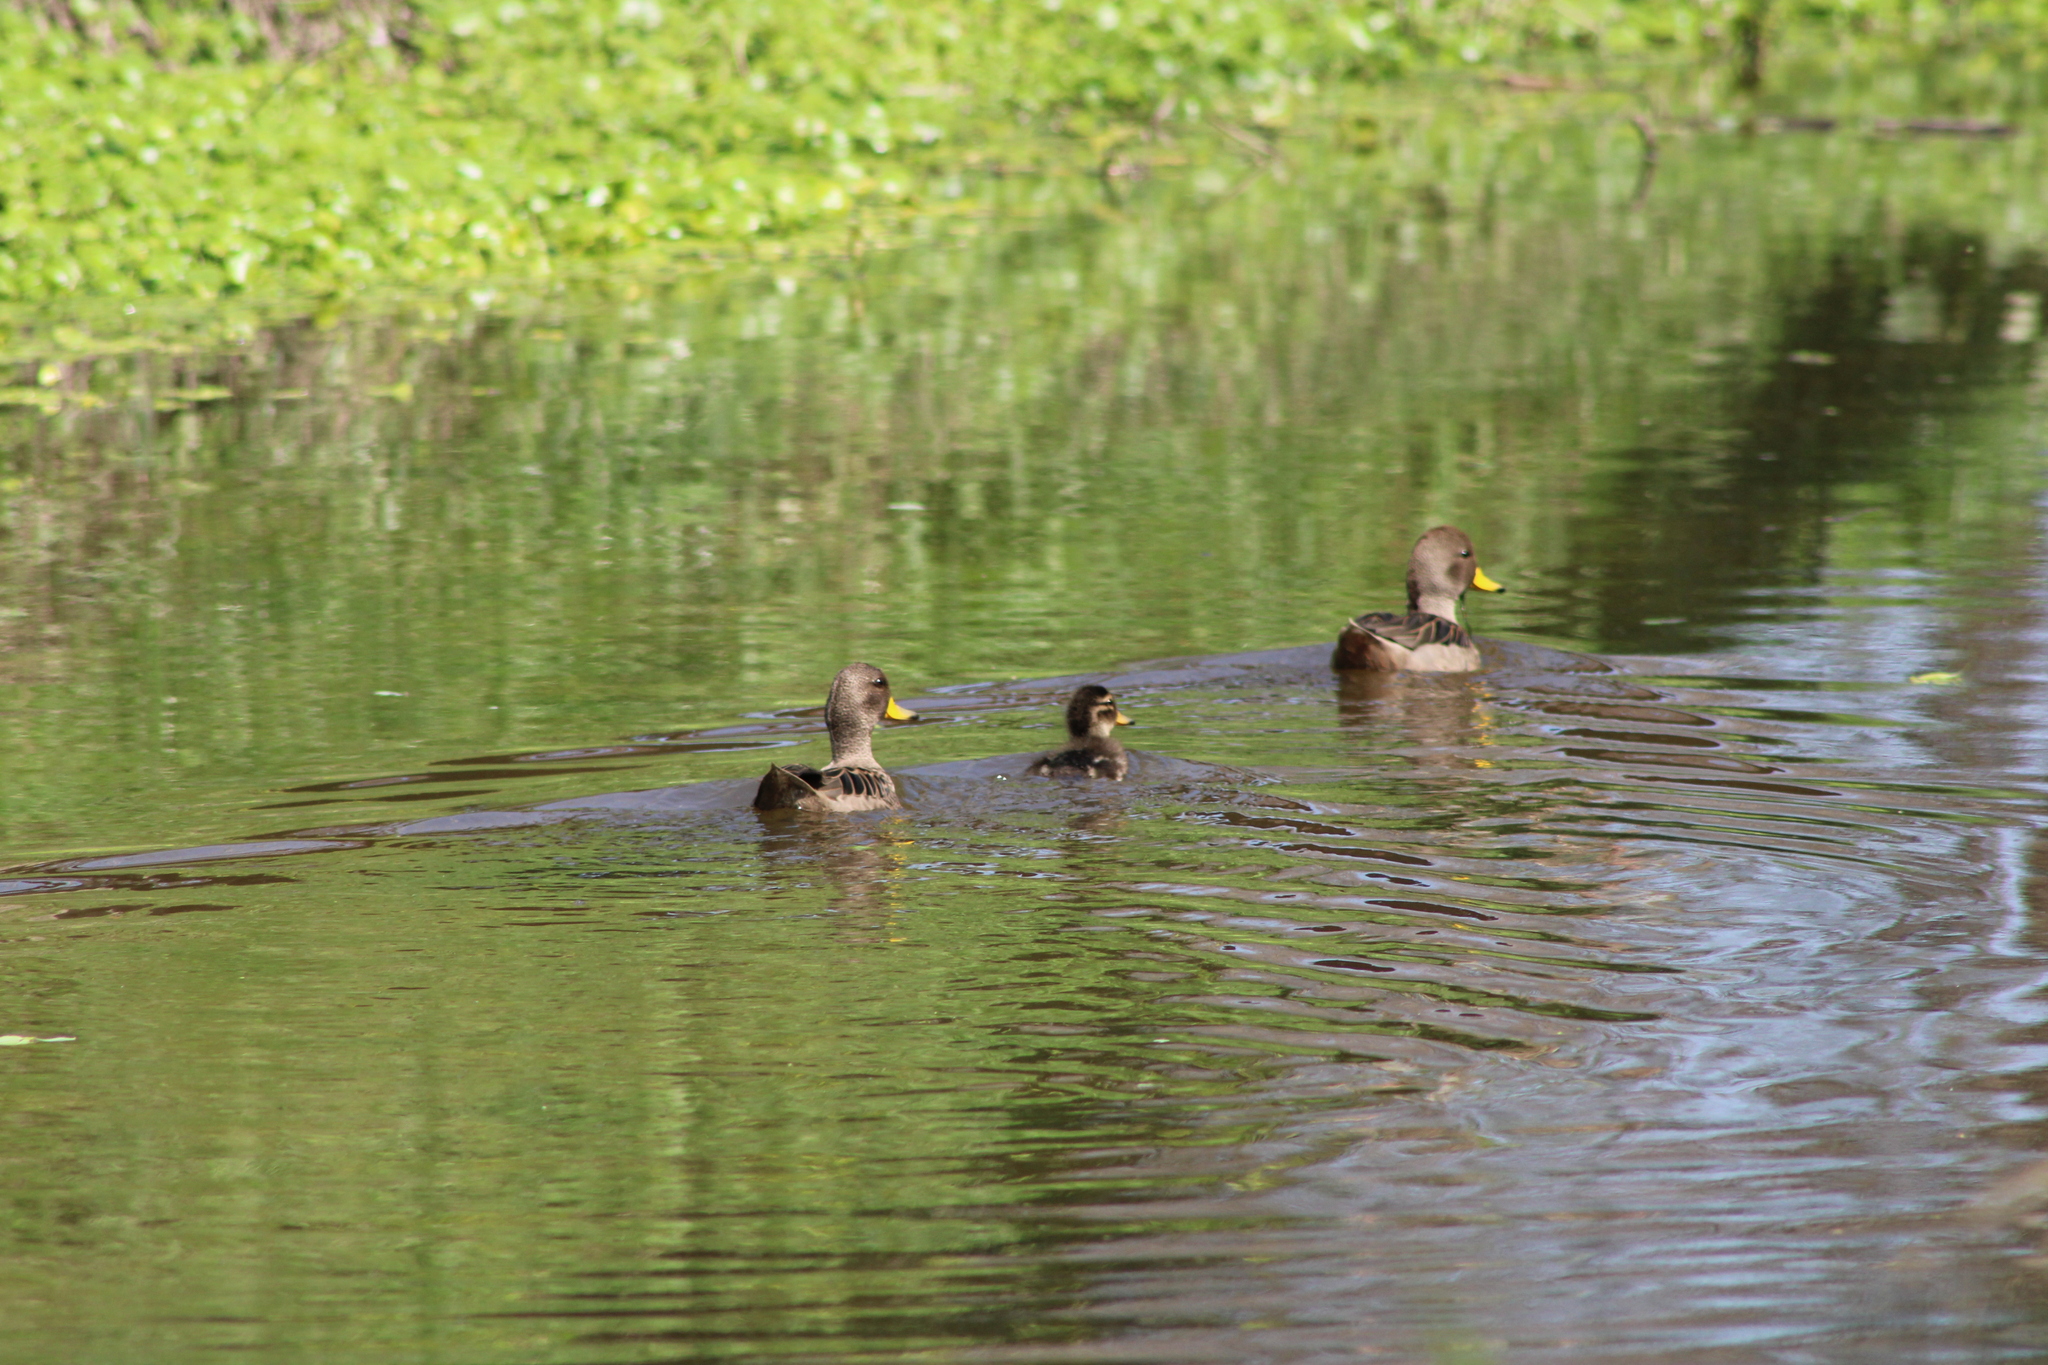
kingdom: Animalia
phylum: Chordata
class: Aves
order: Anseriformes
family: Anatidae
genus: Anas
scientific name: Anas flavirostris
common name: Yellow-billed teal
